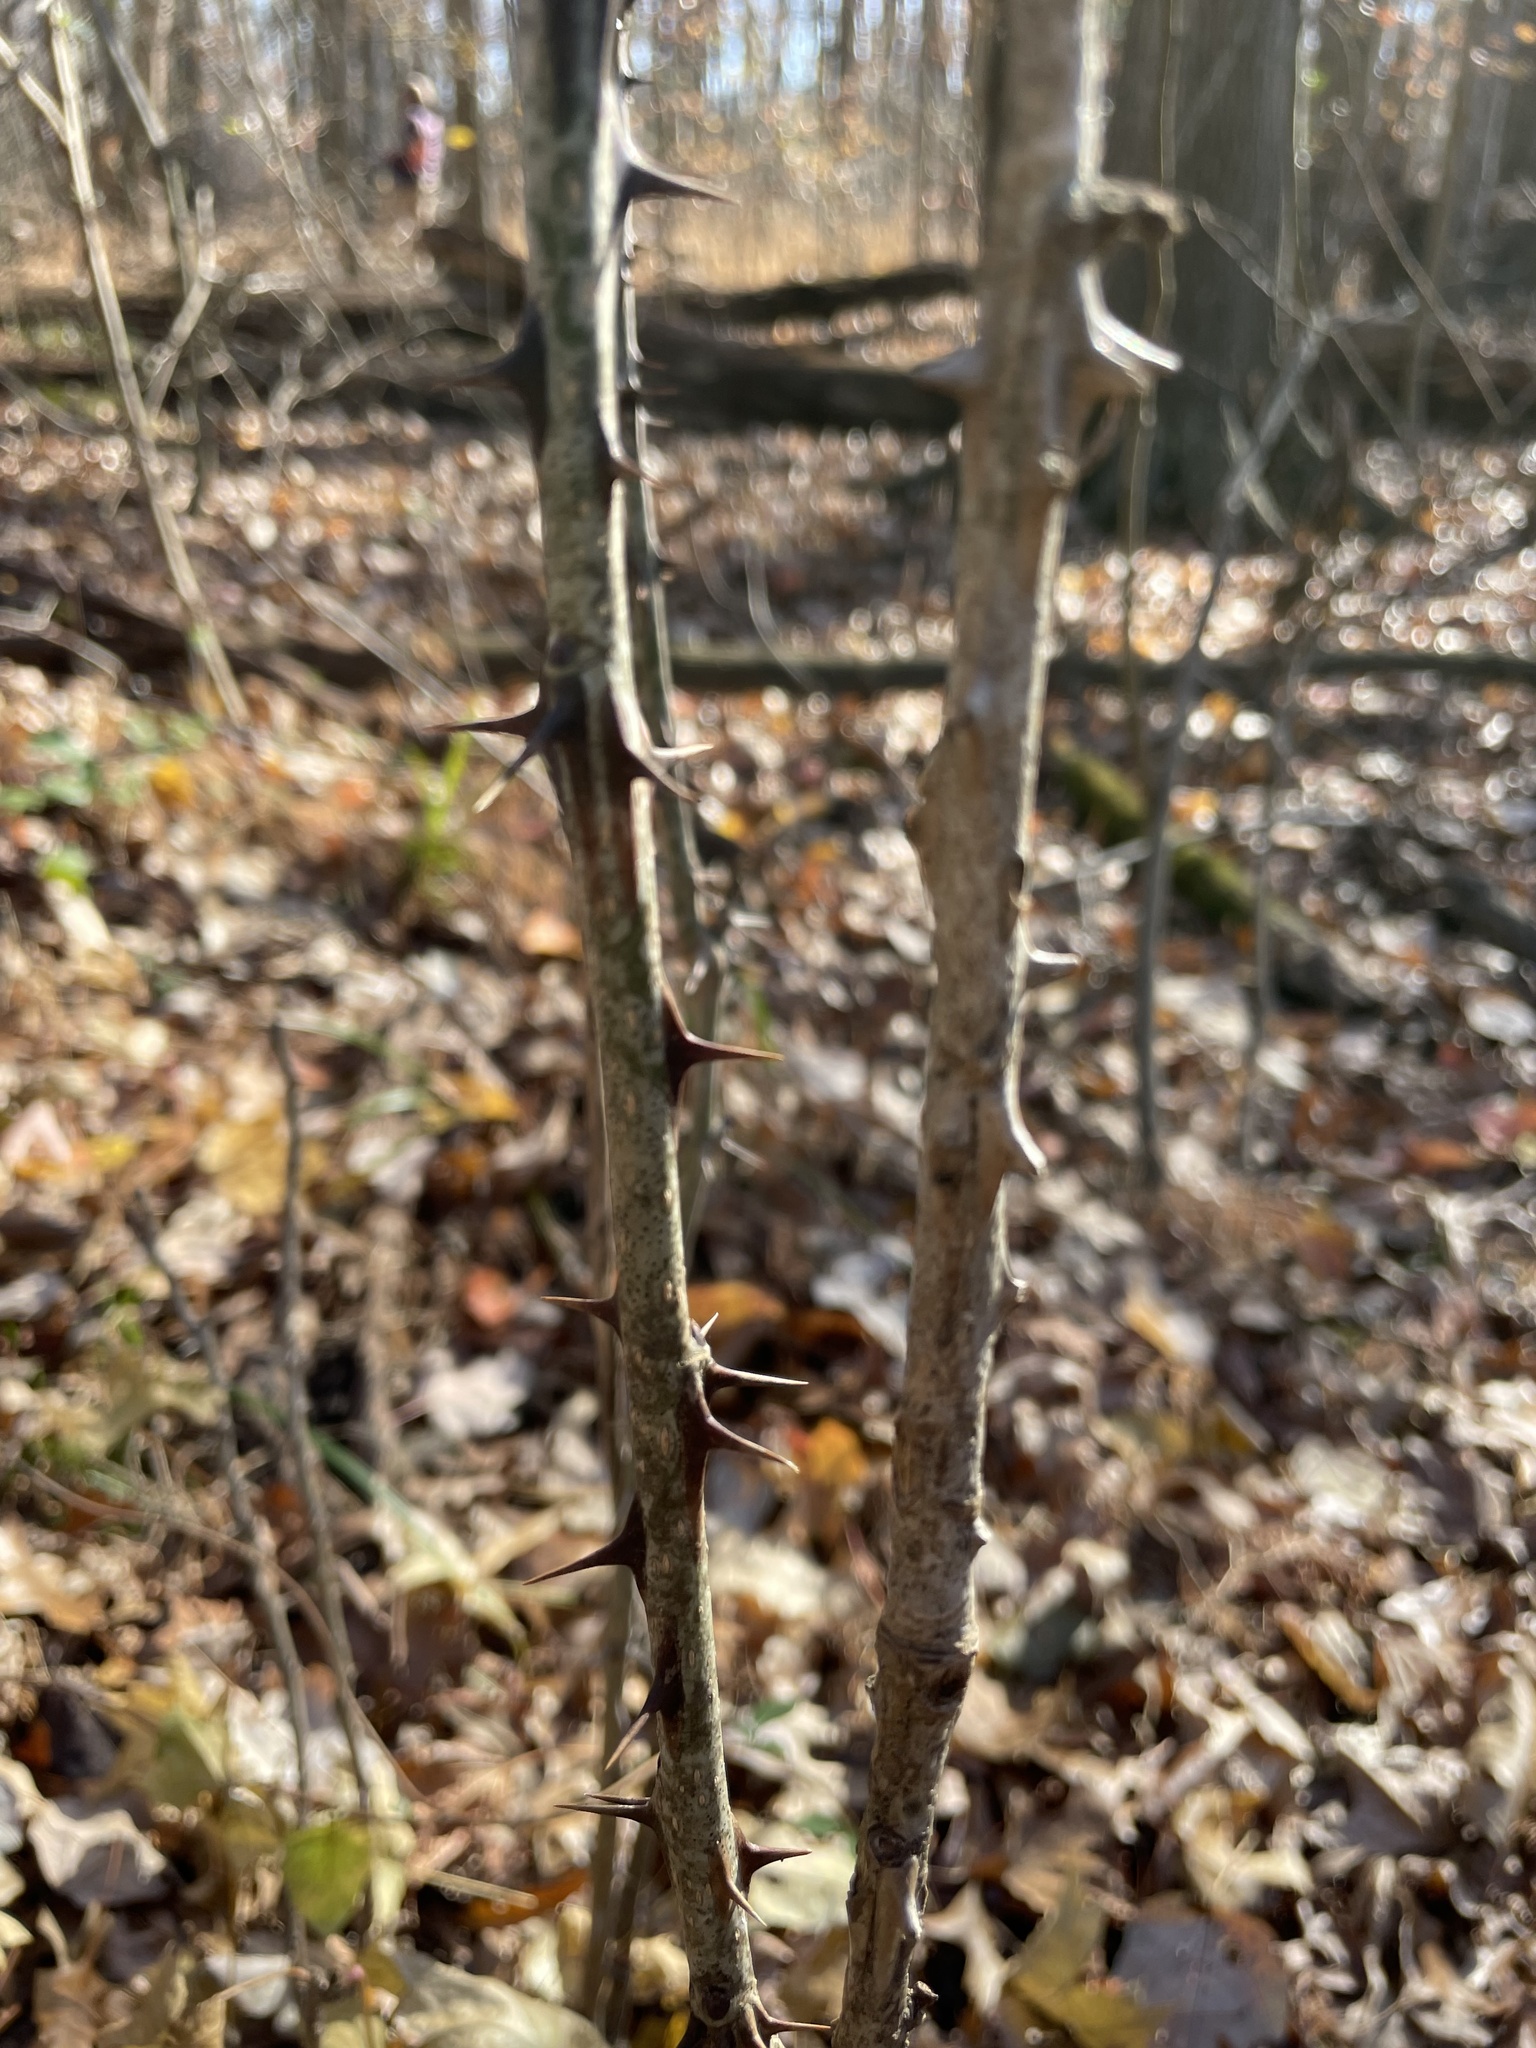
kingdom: Plantae
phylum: Tracheophyta
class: Magnoliopsida
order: Apiales
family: Araliaceae
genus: Kalopanax
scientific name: Kalopanax septemlobus
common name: Castor aralia
